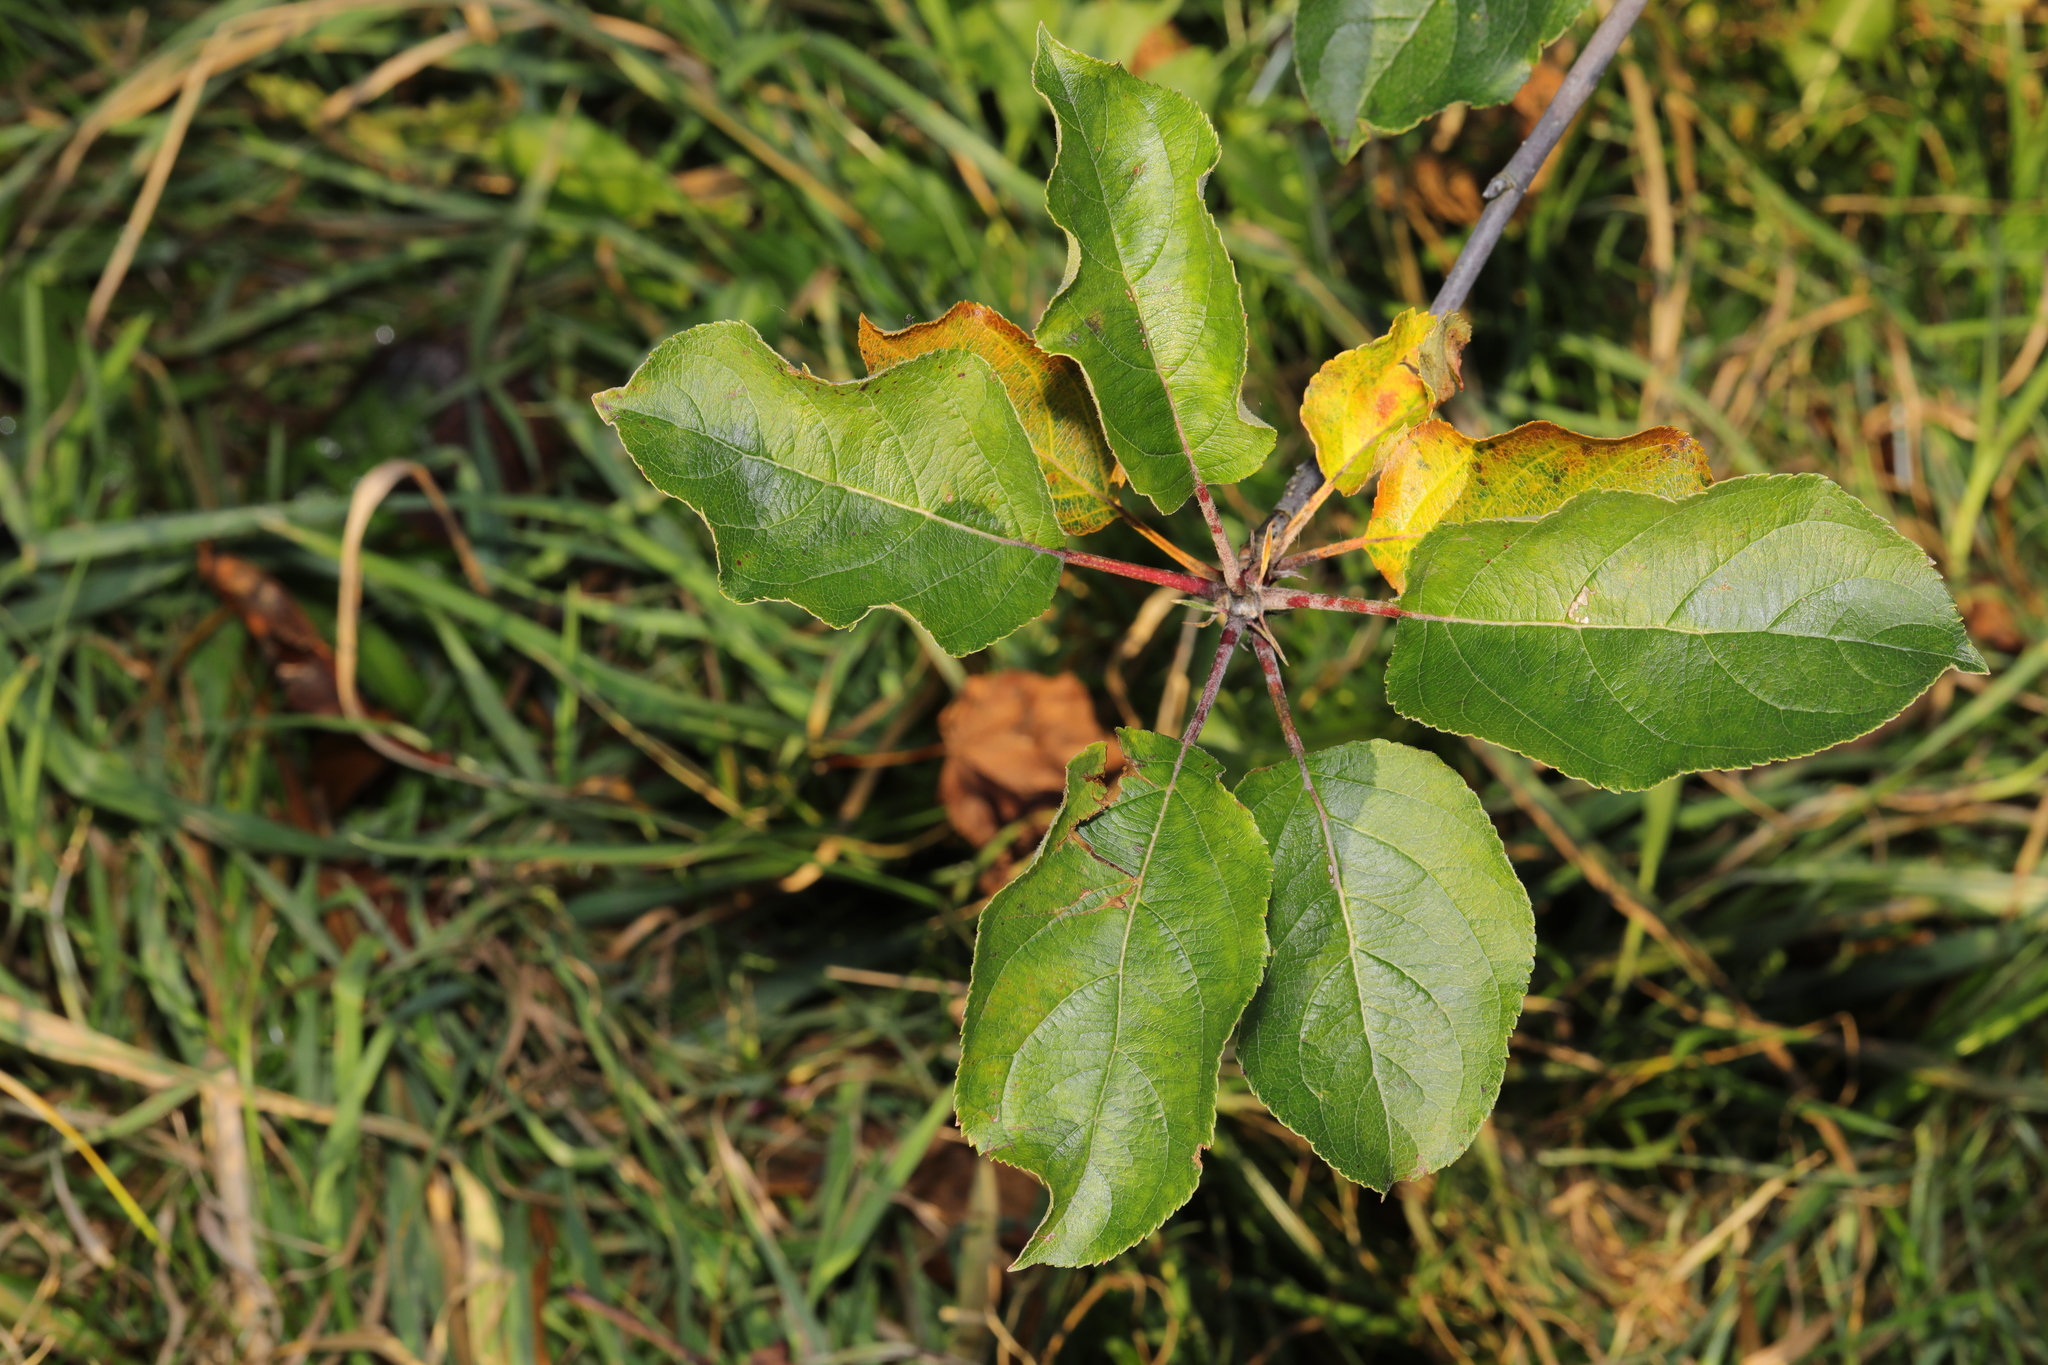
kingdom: Plantae
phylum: Tracheophyta
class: Magnoliopsida
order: Rosales
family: Rosaceae
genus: Malus
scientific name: Malus domestica
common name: Apple
